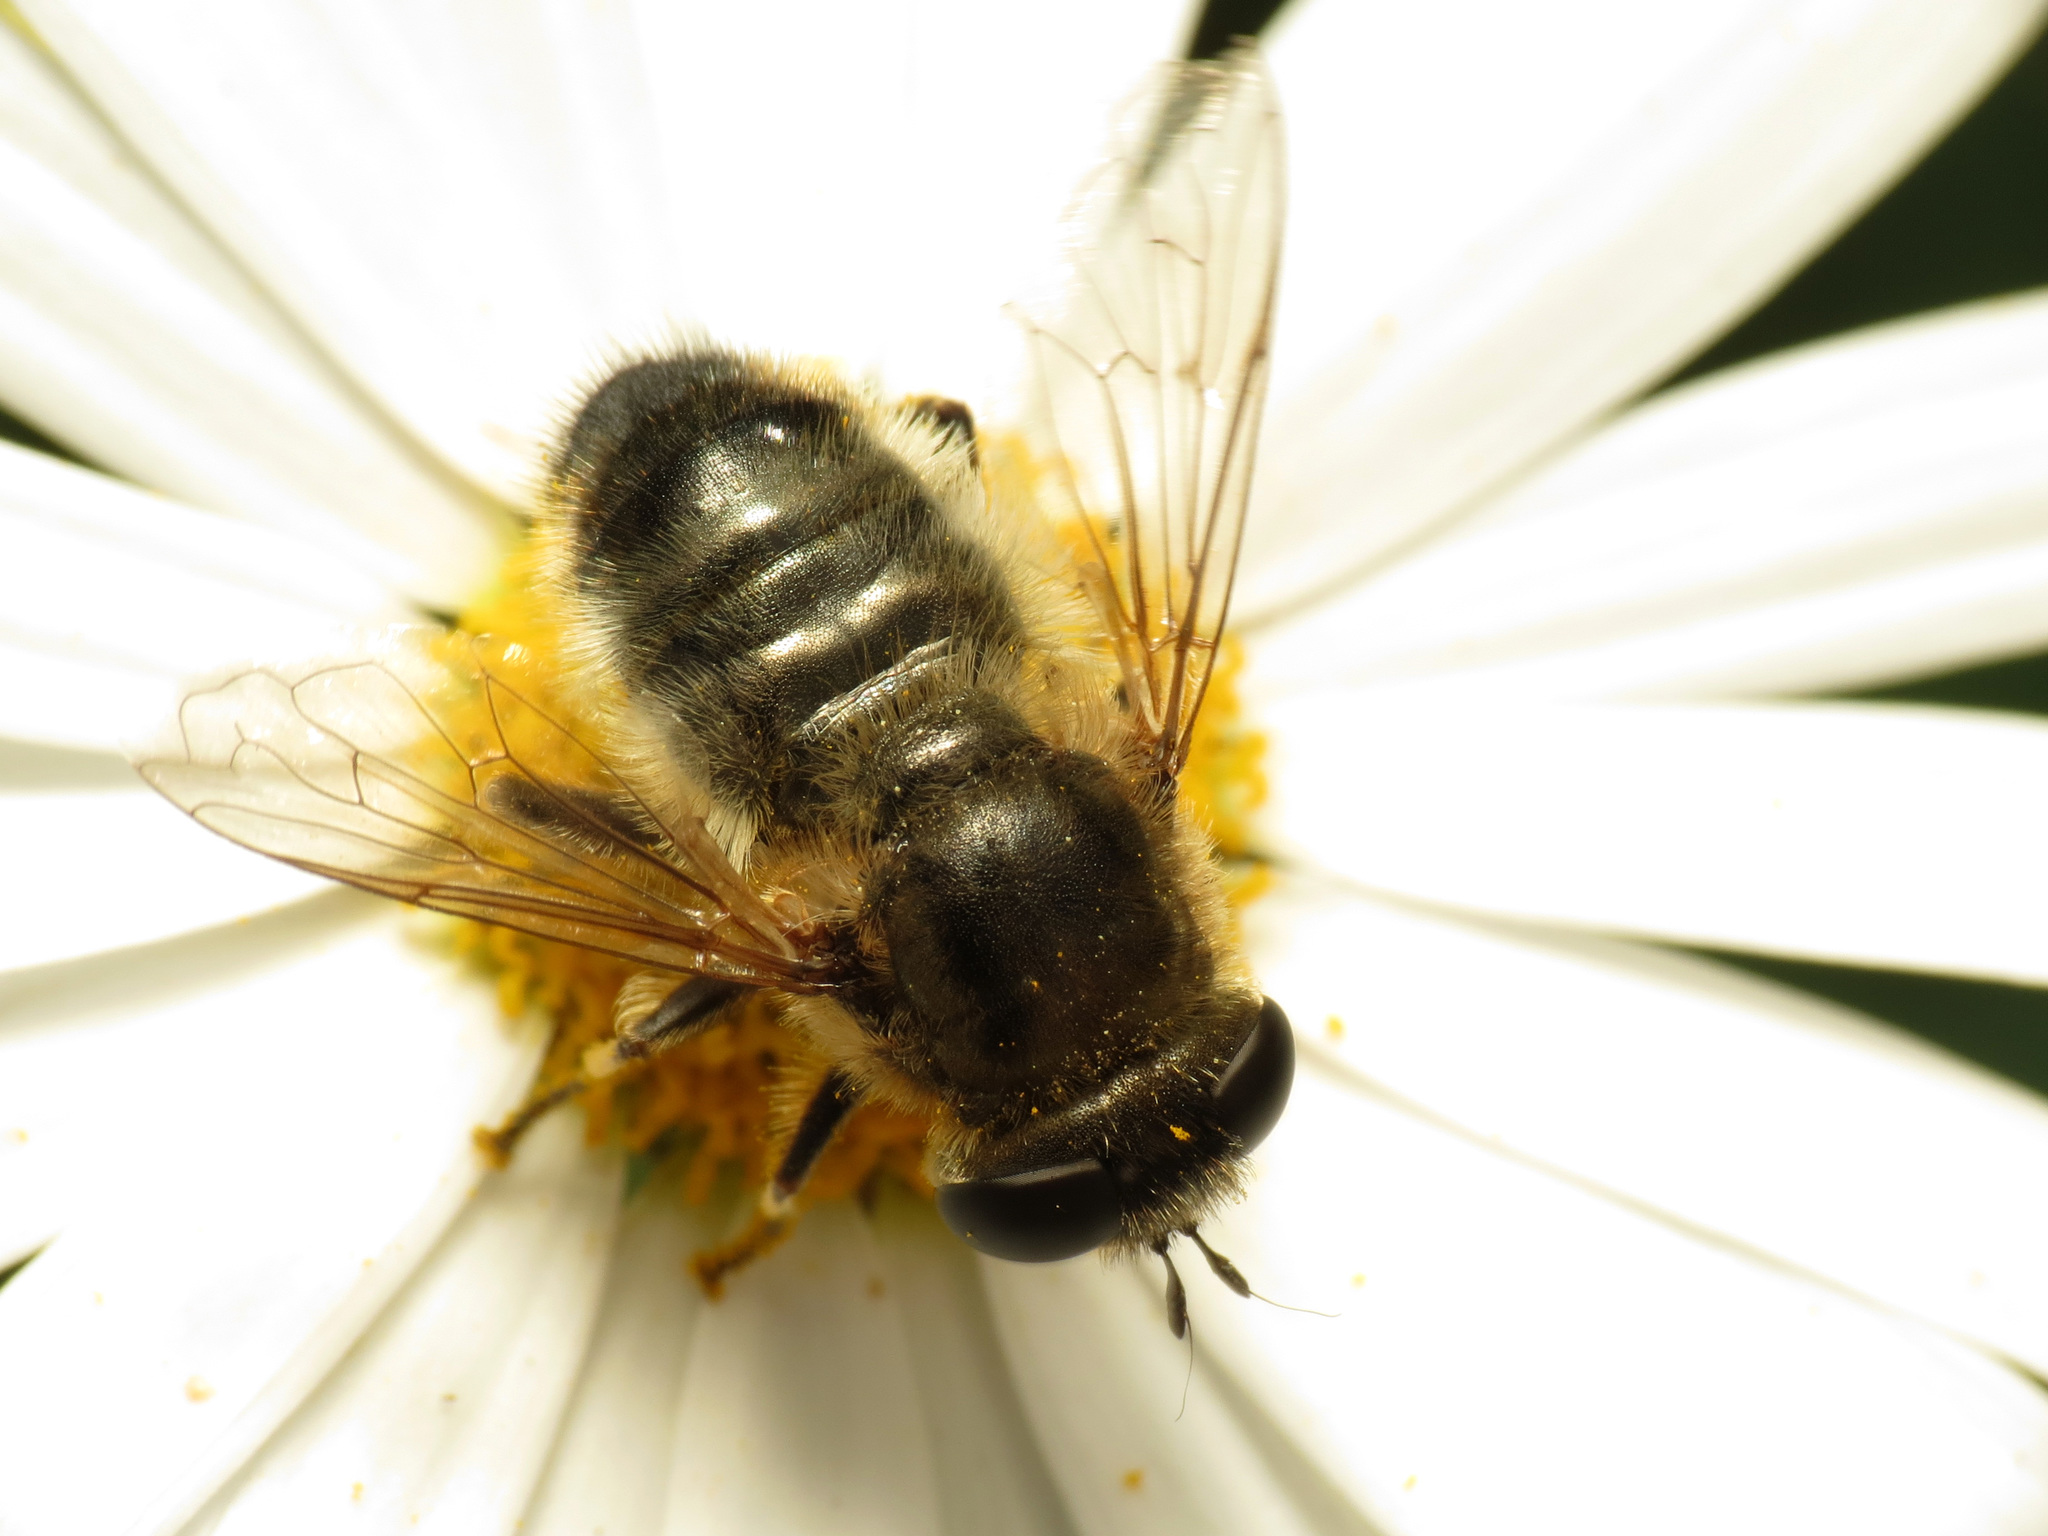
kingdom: Animalia
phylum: Arthropoda
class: Insecta
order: Diptera
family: Syrphidae
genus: Merodon
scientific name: Merodon setosus
